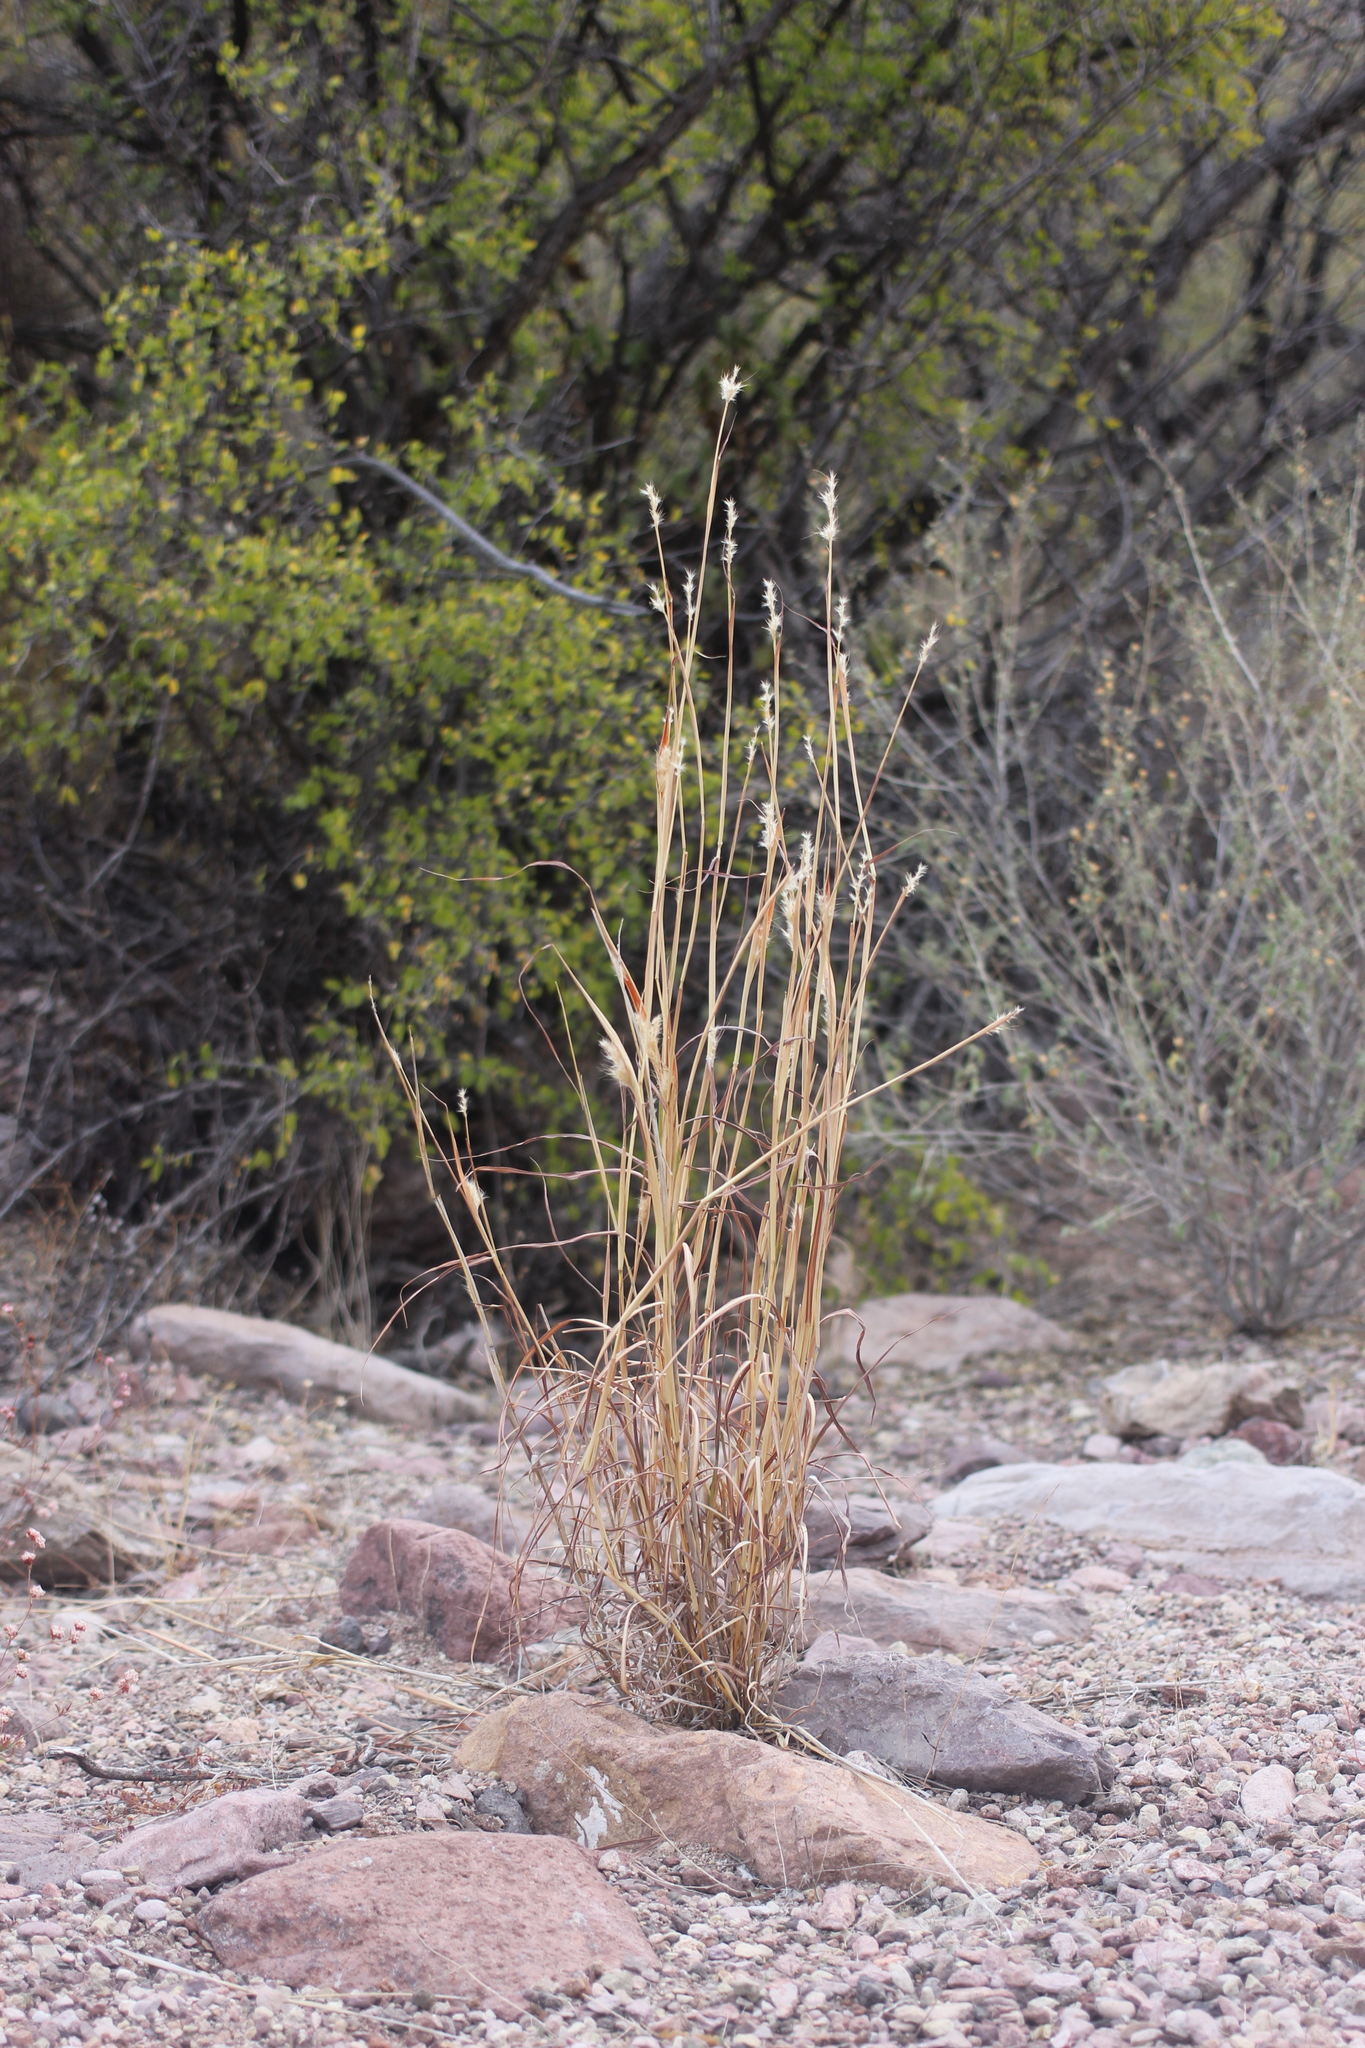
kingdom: Plantae
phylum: Tracheophyta
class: Liliopsida
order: Poales
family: Poaceae
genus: Bothriochloa
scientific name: Bothriochloa barbinodis
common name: Cane bluestem
